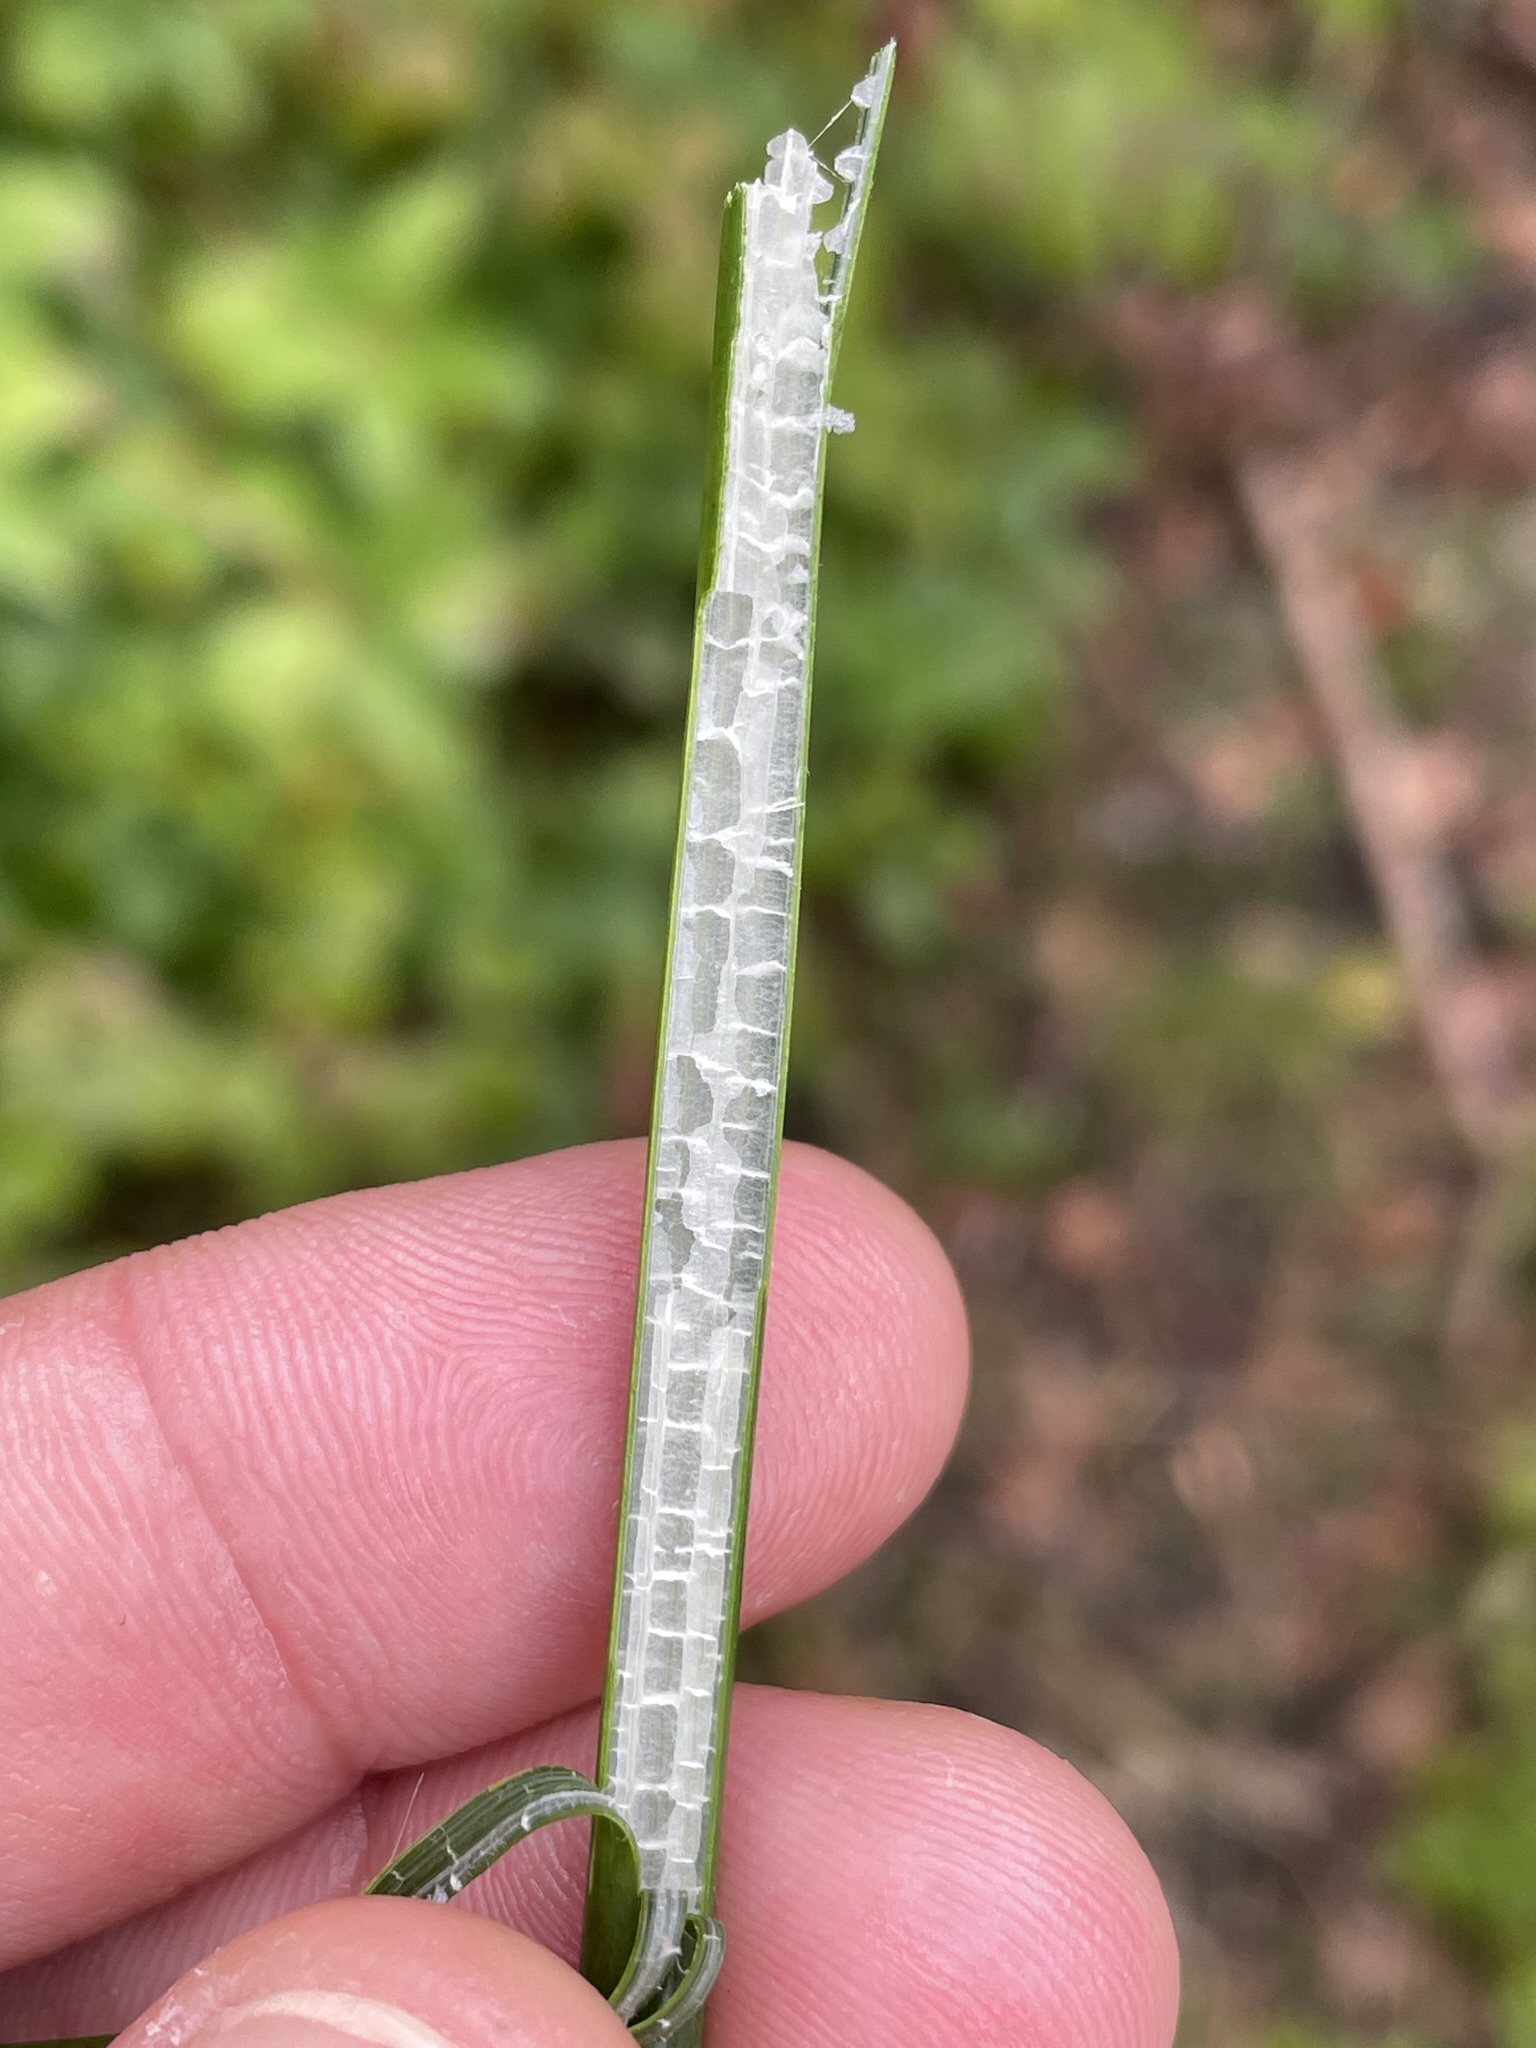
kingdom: Plantae
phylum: Tracheophyta
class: Liliopsida
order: Poales
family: Cyperaceae
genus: Schoenoplectus
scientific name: Schoenoplectus lacustris
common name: Common club-rush
